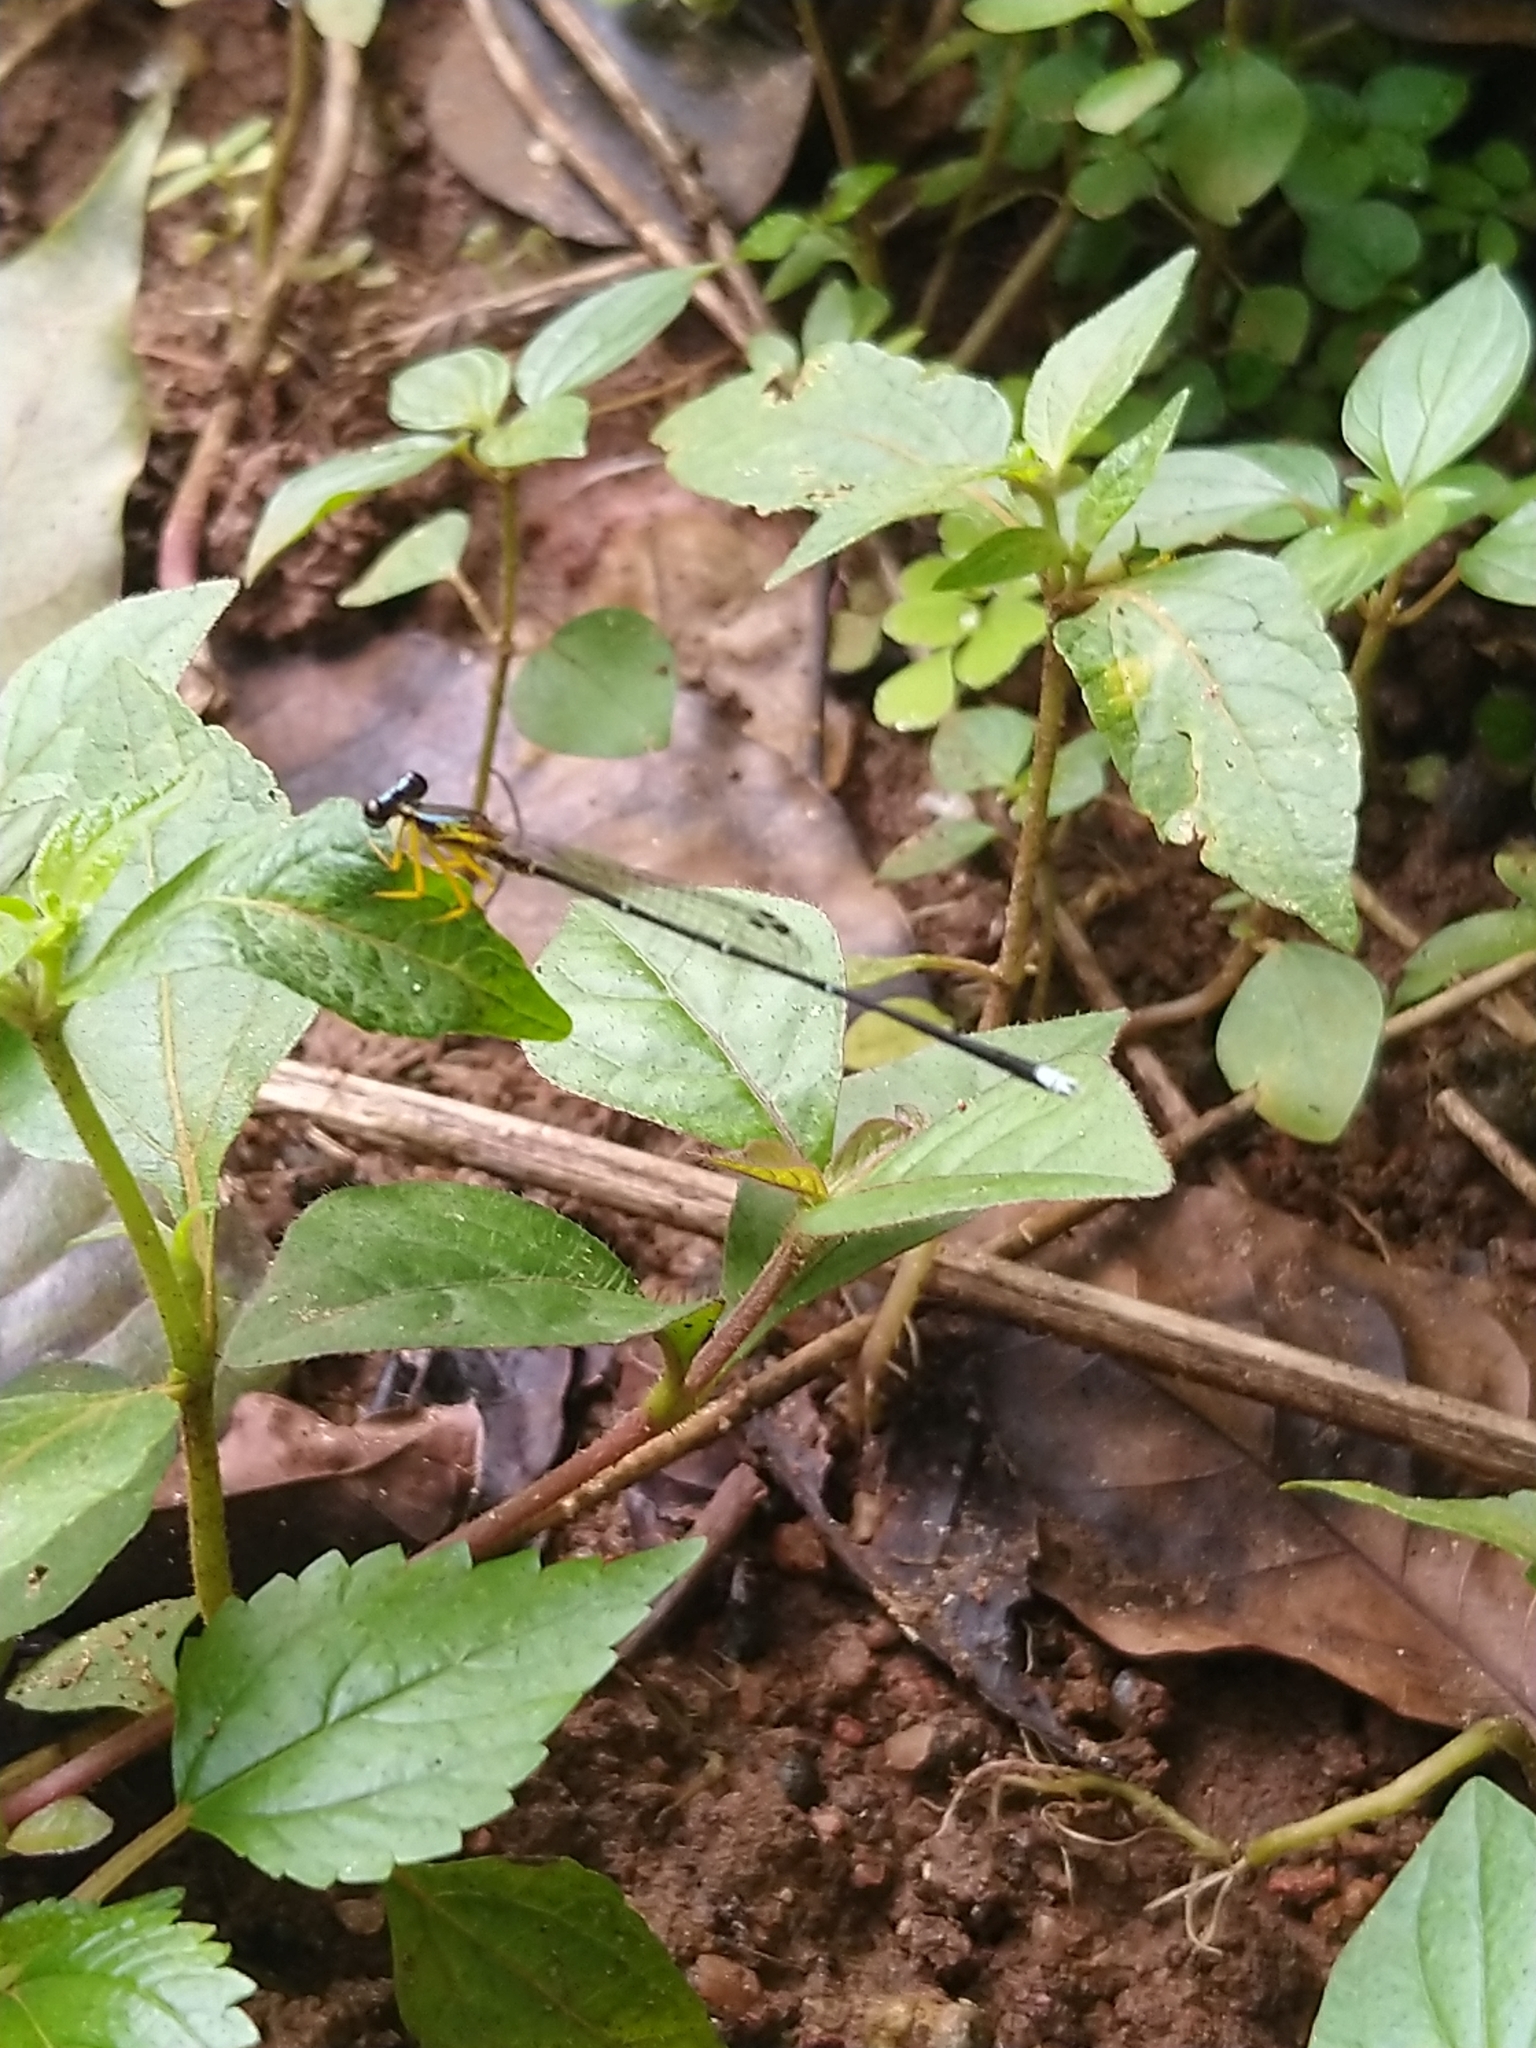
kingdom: Animalia
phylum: Arthropoda
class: Insecta
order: Odonata
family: Platycnemididae
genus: Copera
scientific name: Copera vittata
